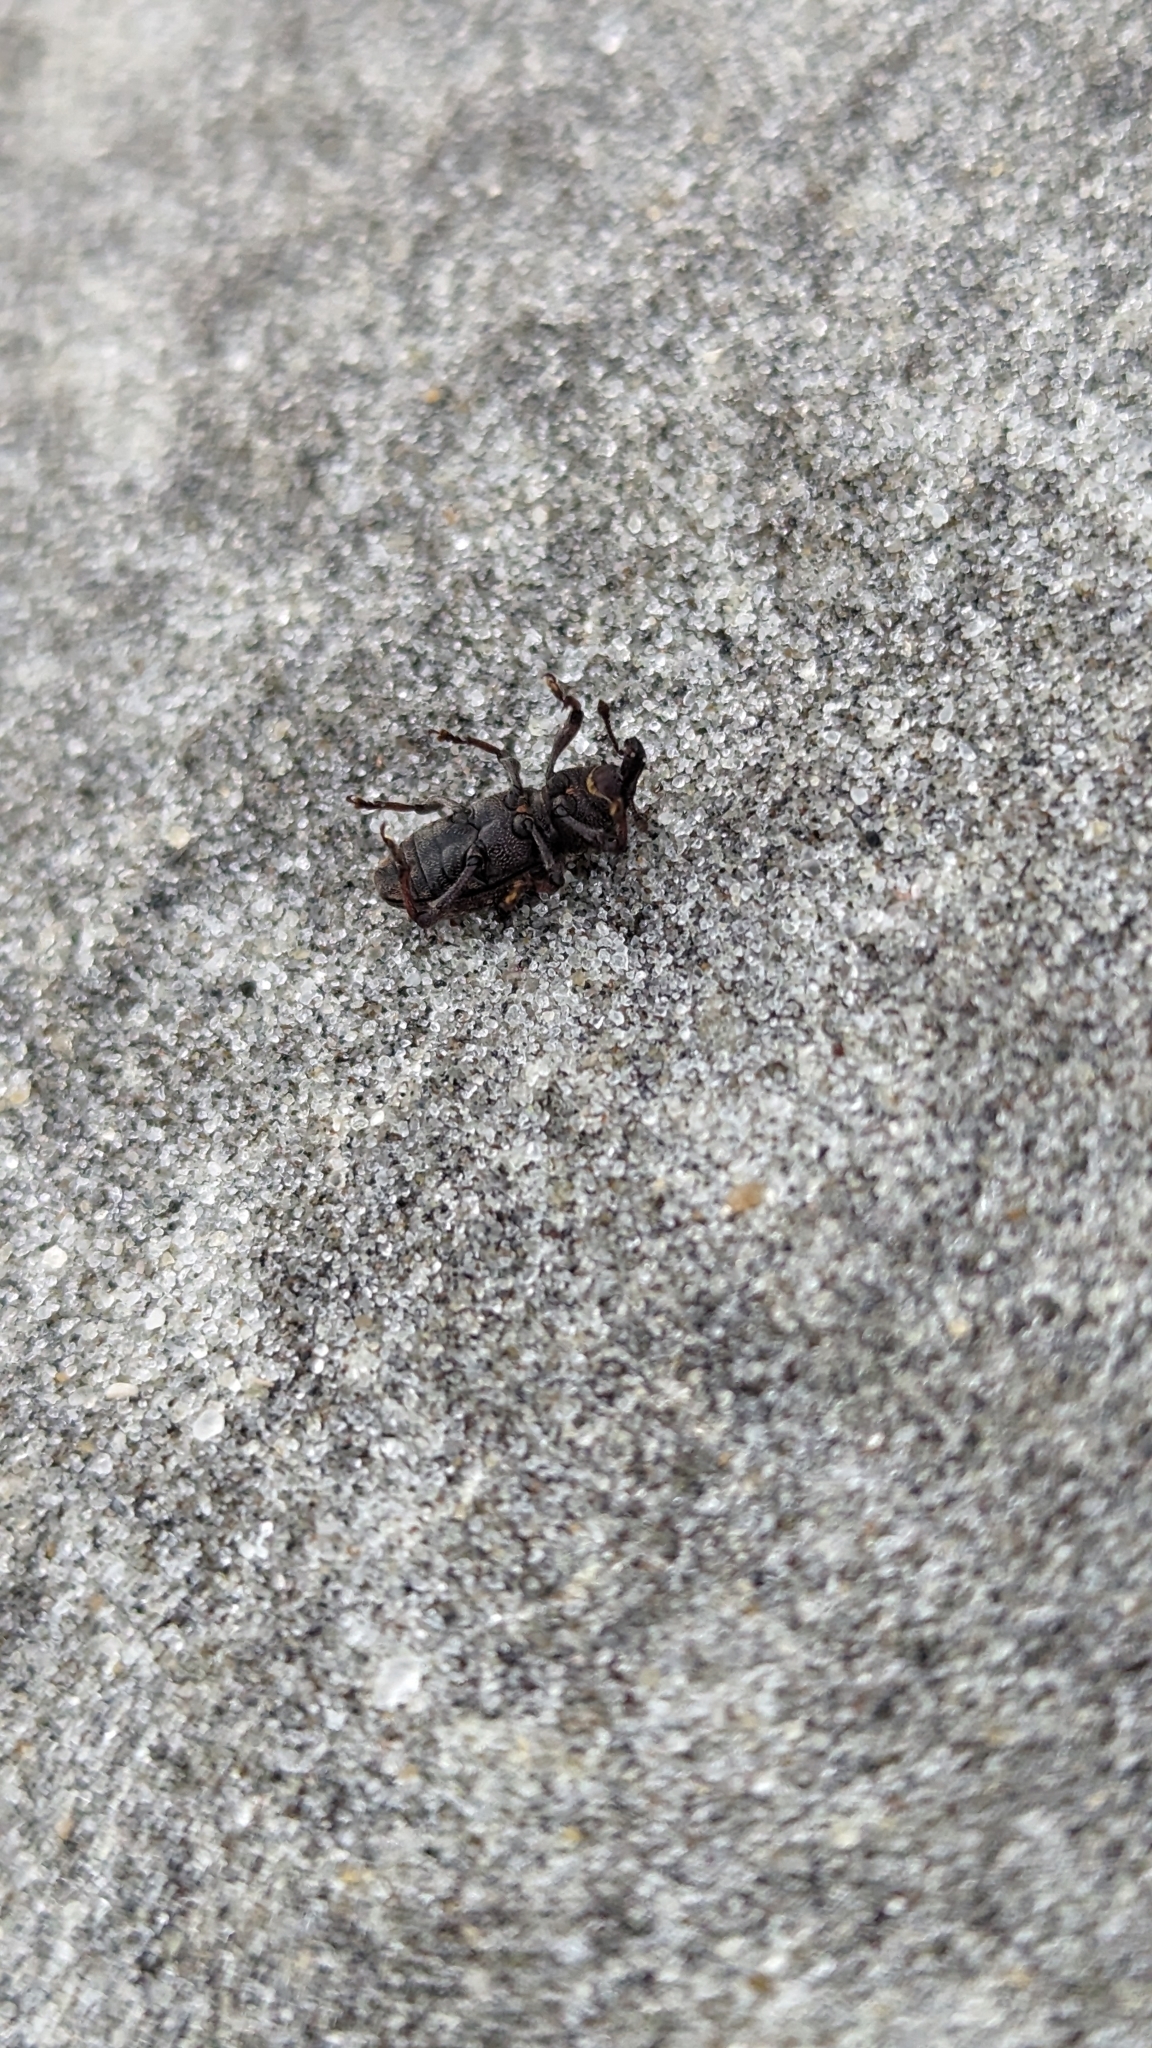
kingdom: Animalia
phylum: Arthropoda
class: Insecta
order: Coleoptera
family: Curculionidae
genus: Hylobius
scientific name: Hylobius pales
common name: Pales weevil
